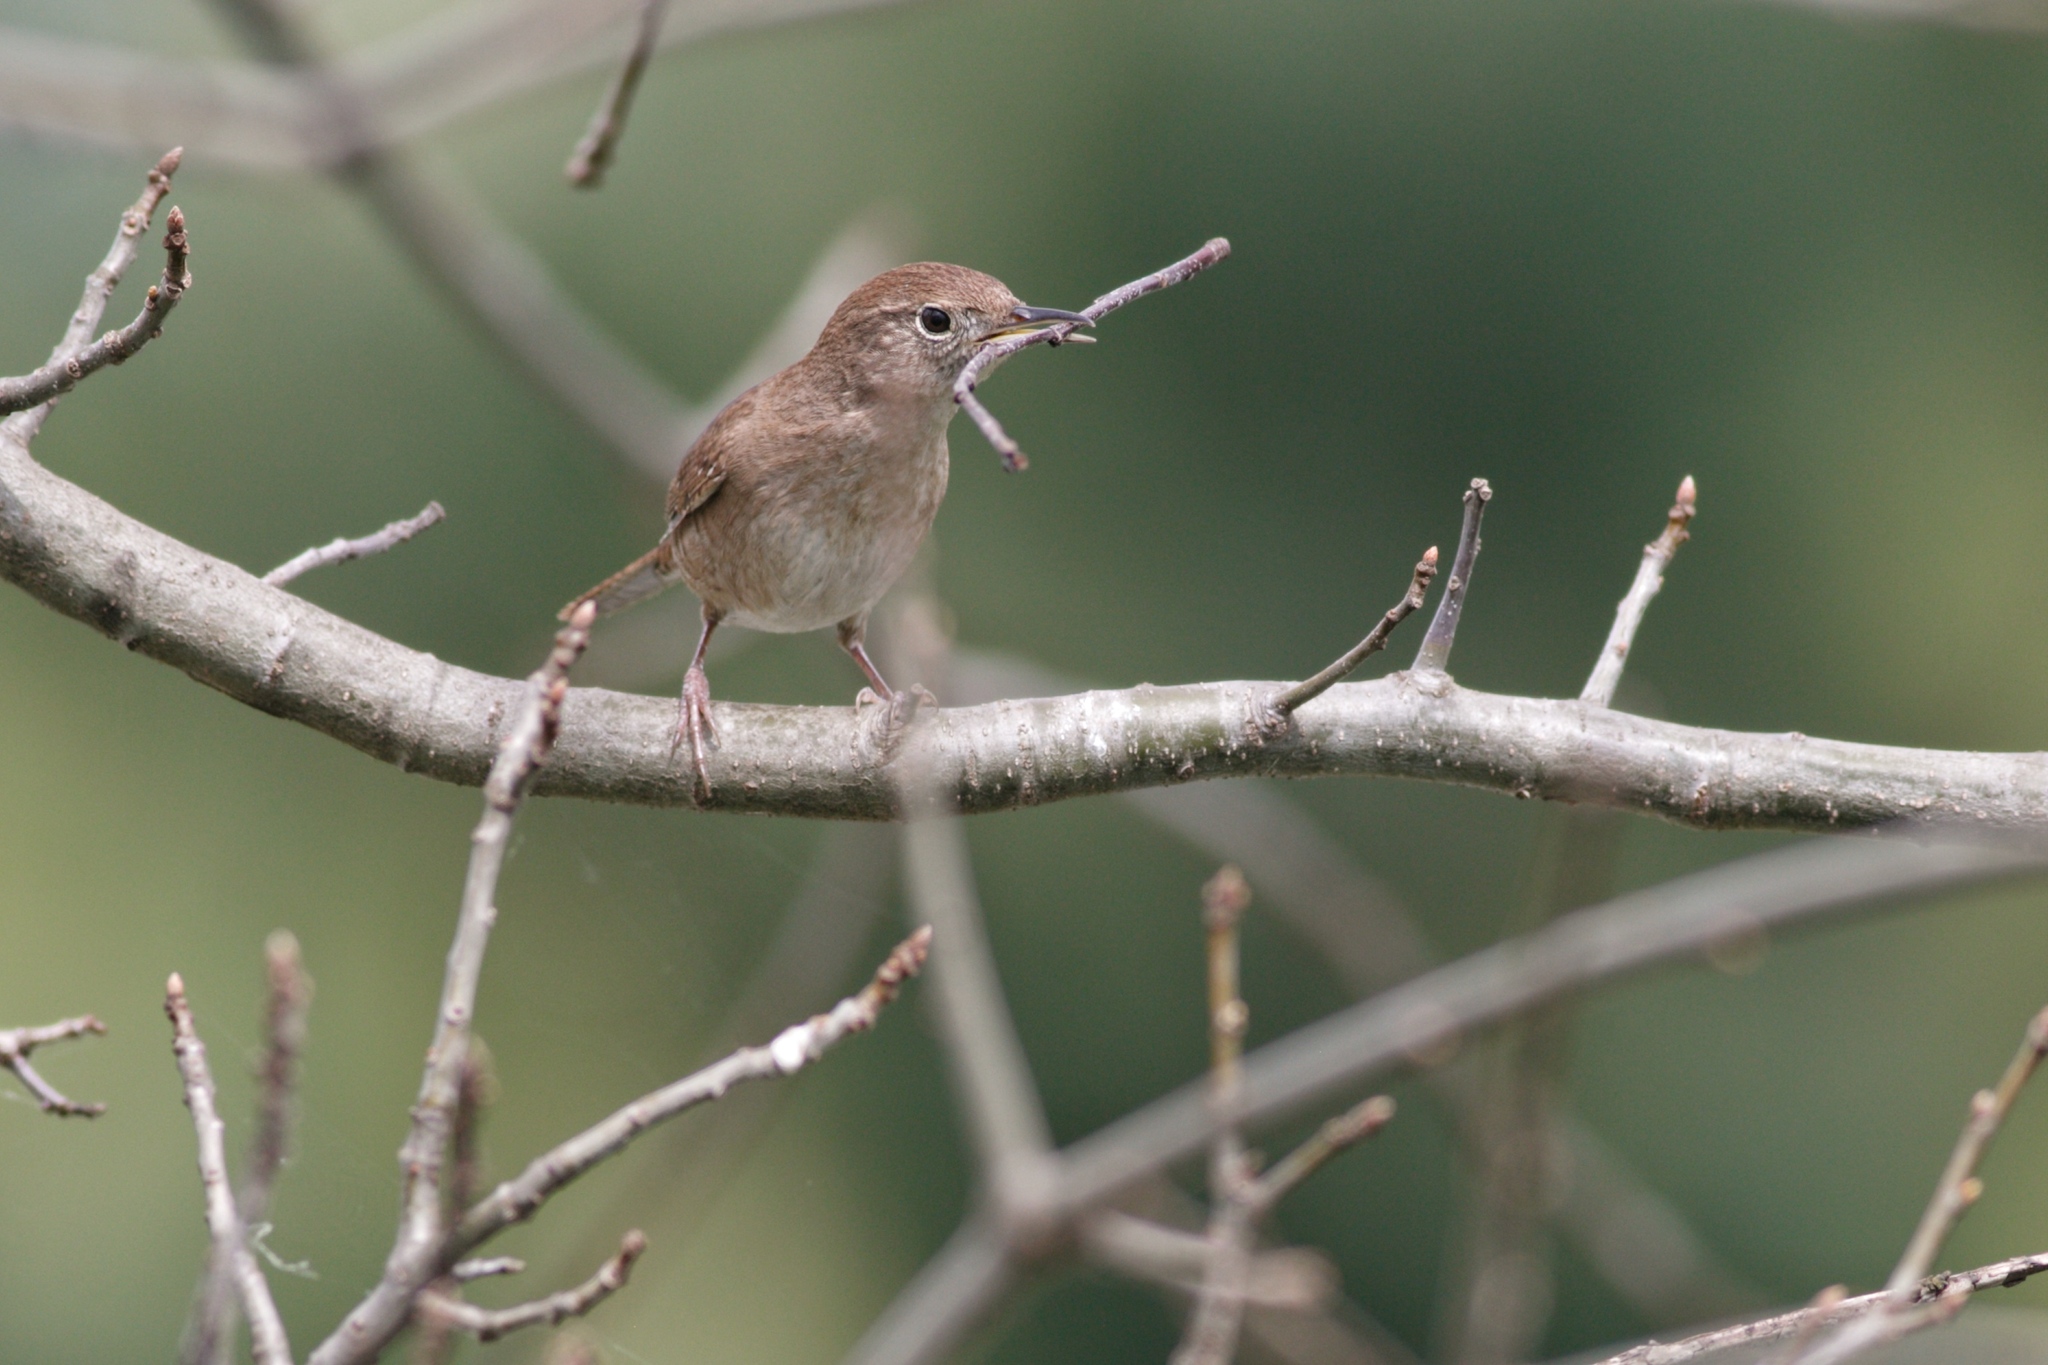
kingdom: Animalia
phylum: Chordata
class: Aves
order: Passeriformes
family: Troglodytidae
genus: Troglodytes
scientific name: Troglodytes aedon
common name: House wren
